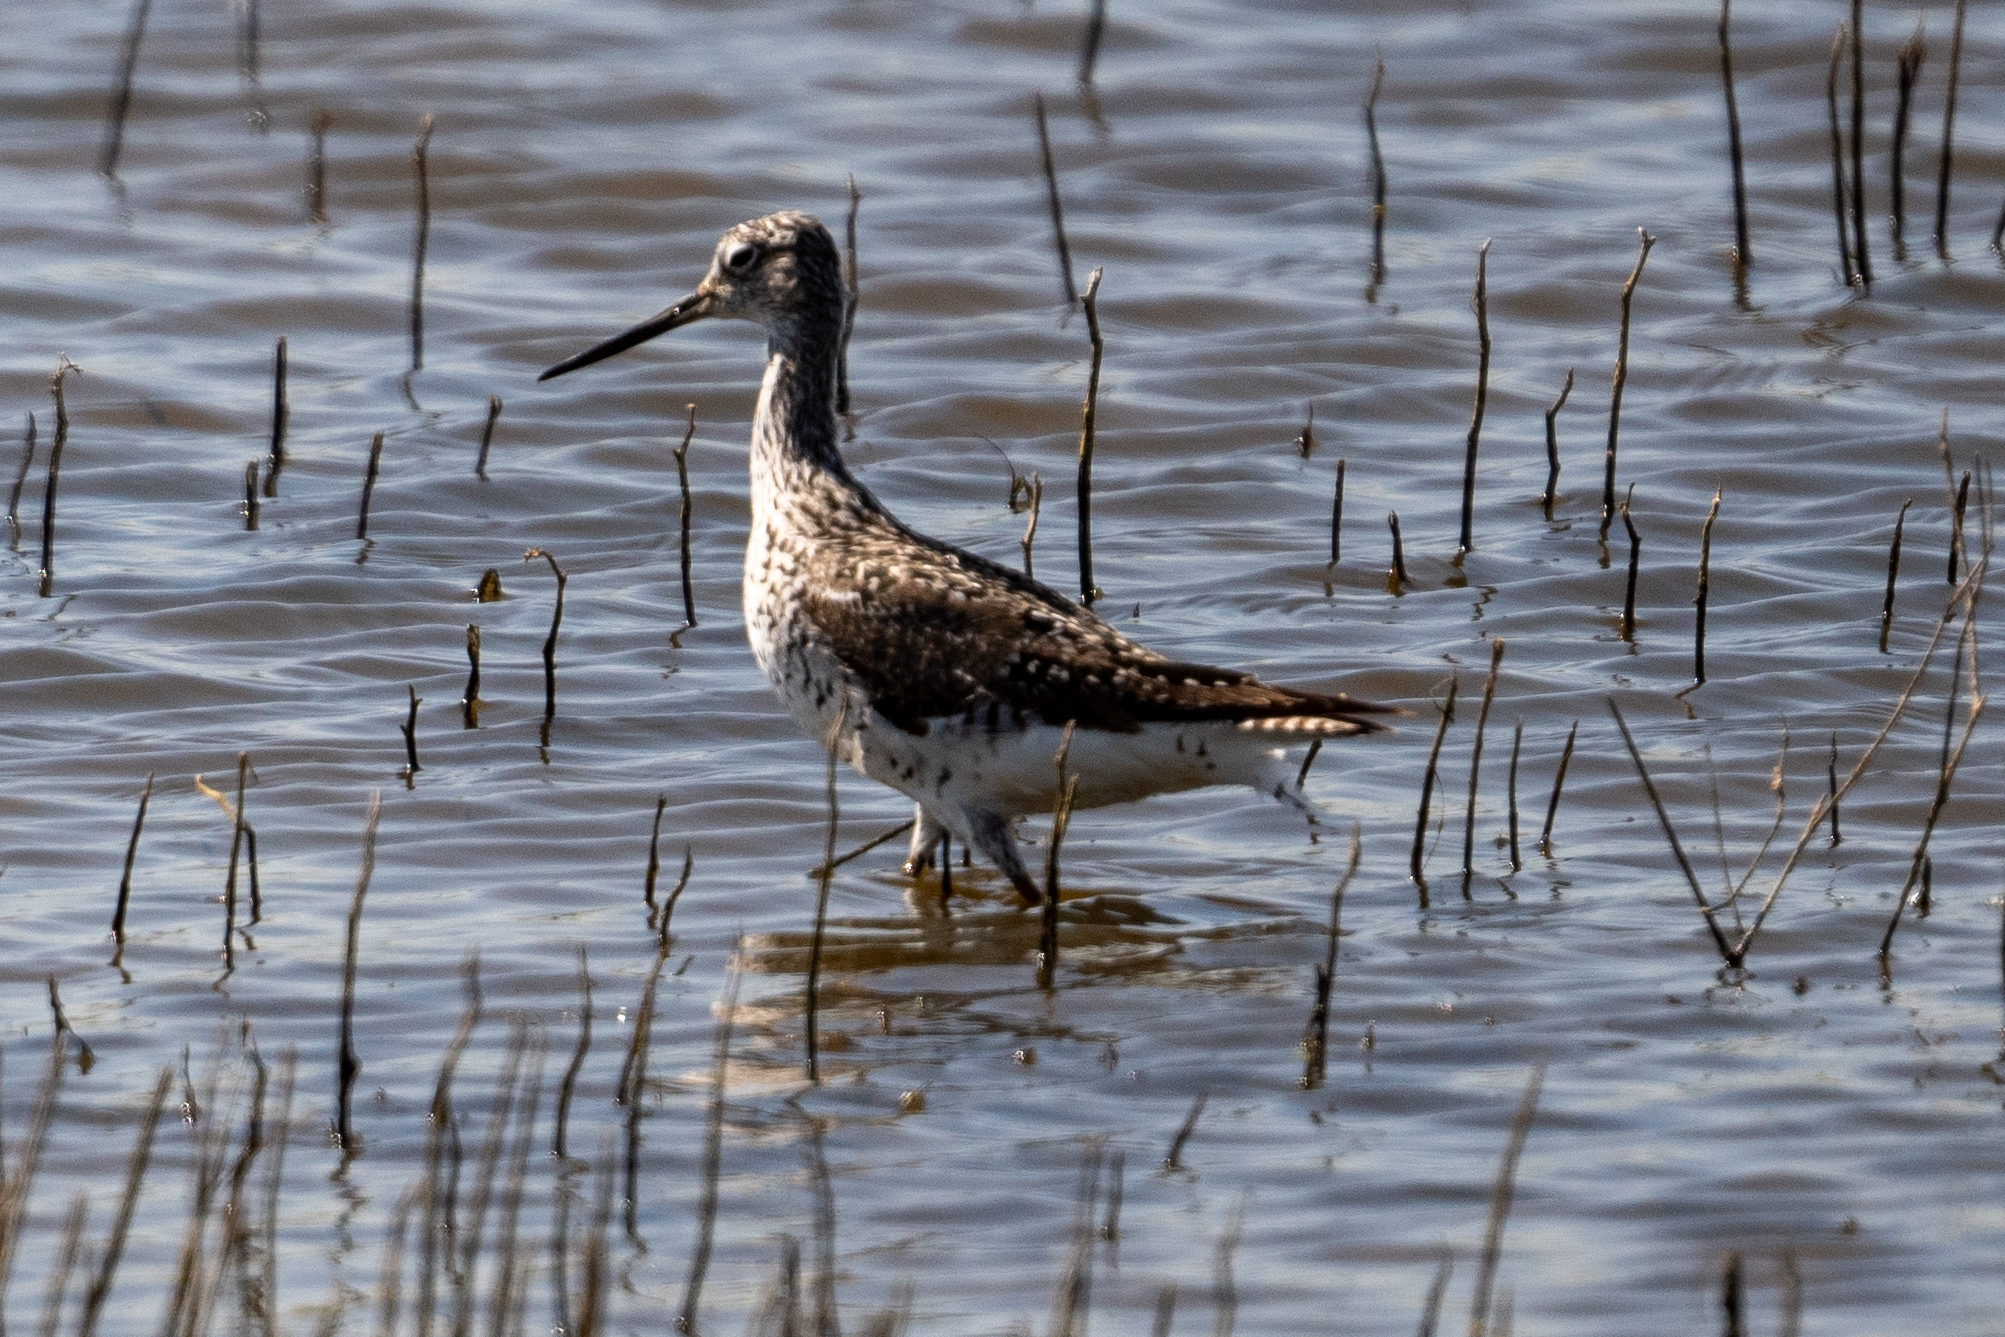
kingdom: Animalia
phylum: Chordata
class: Aves
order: Charadriiformes
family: Scolopacidae
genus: Tringa
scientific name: Tringa melanoleuca
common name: Greater yellowlegs
